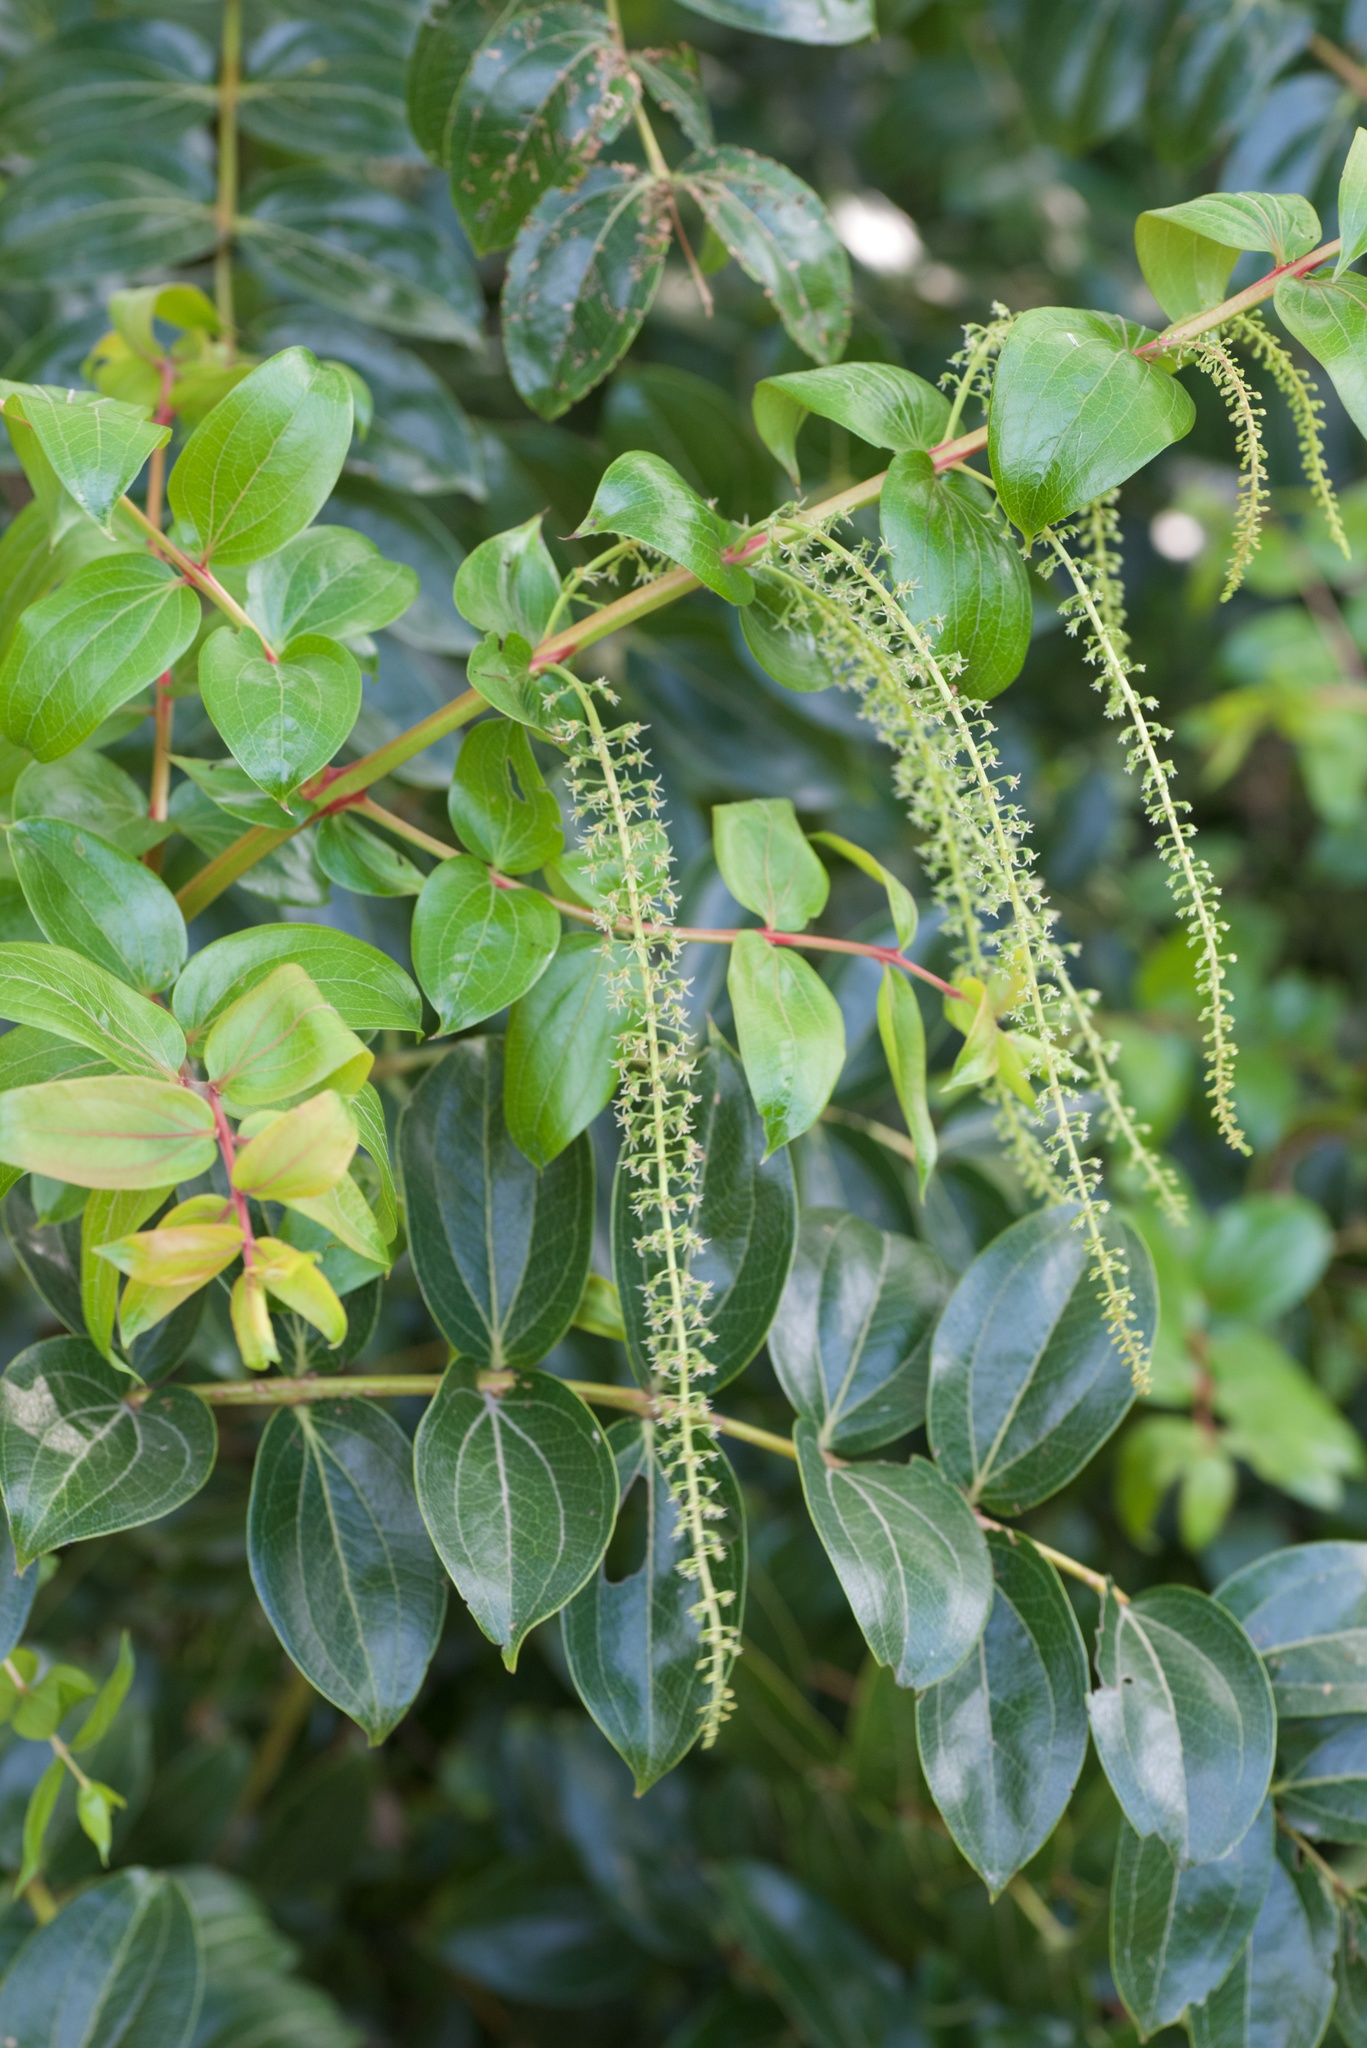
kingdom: Plantae
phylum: Tracheophyta
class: Magnoliopsida
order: Cucurbitales
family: Coriariaceae
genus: Coriaria
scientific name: Coriaria arborea
